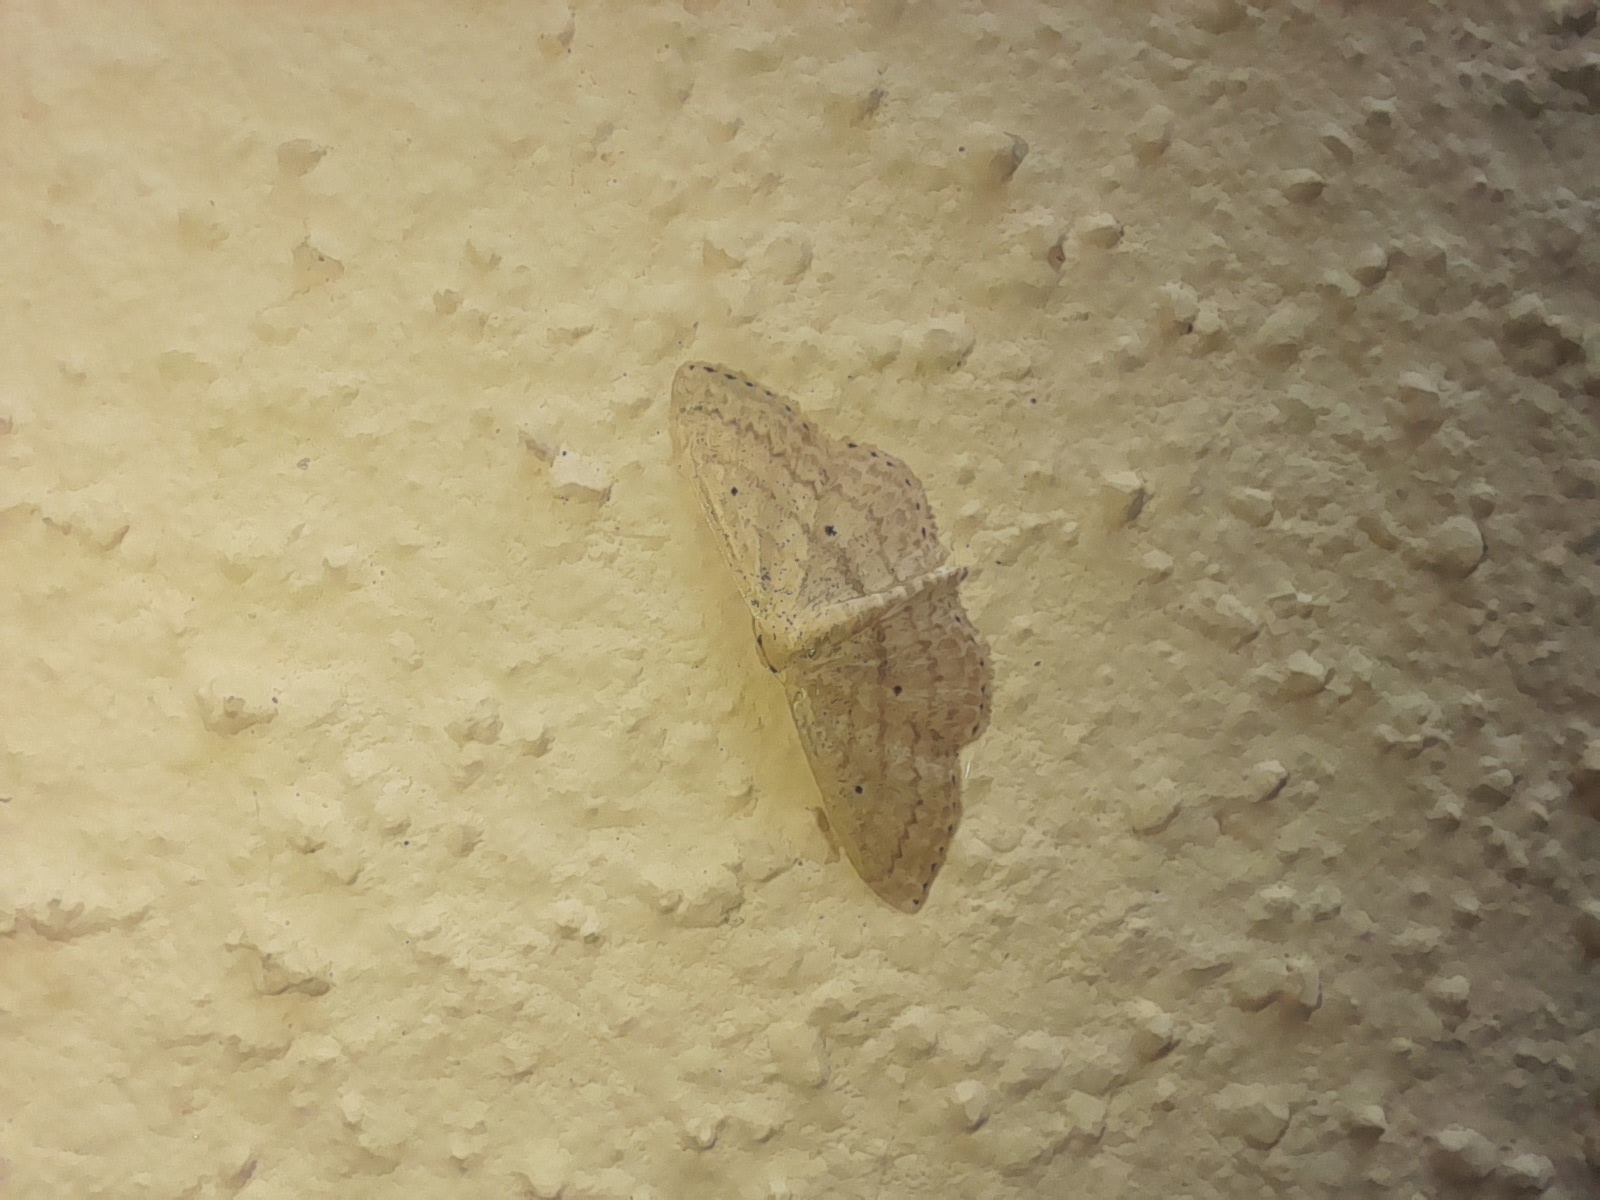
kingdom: Animalia
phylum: Arthropoda
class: Insecta
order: Lepidoptera
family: Geometridae
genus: Scopula
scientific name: Scopula minorata
